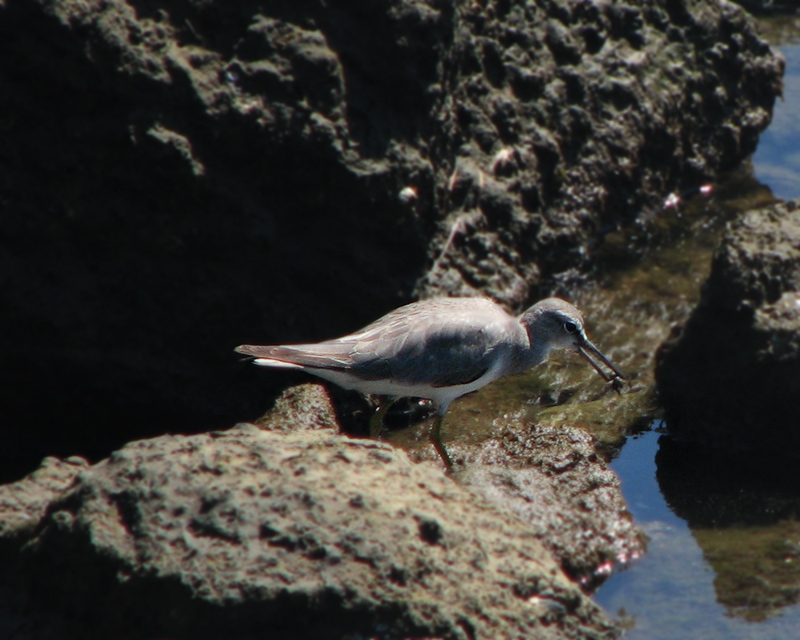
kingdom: Animalia
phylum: Chordata
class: Aves
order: Charadriiformes
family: Scolopacidae
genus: Tringa
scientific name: Tringa brevipes
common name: Grey-tailed tattler
